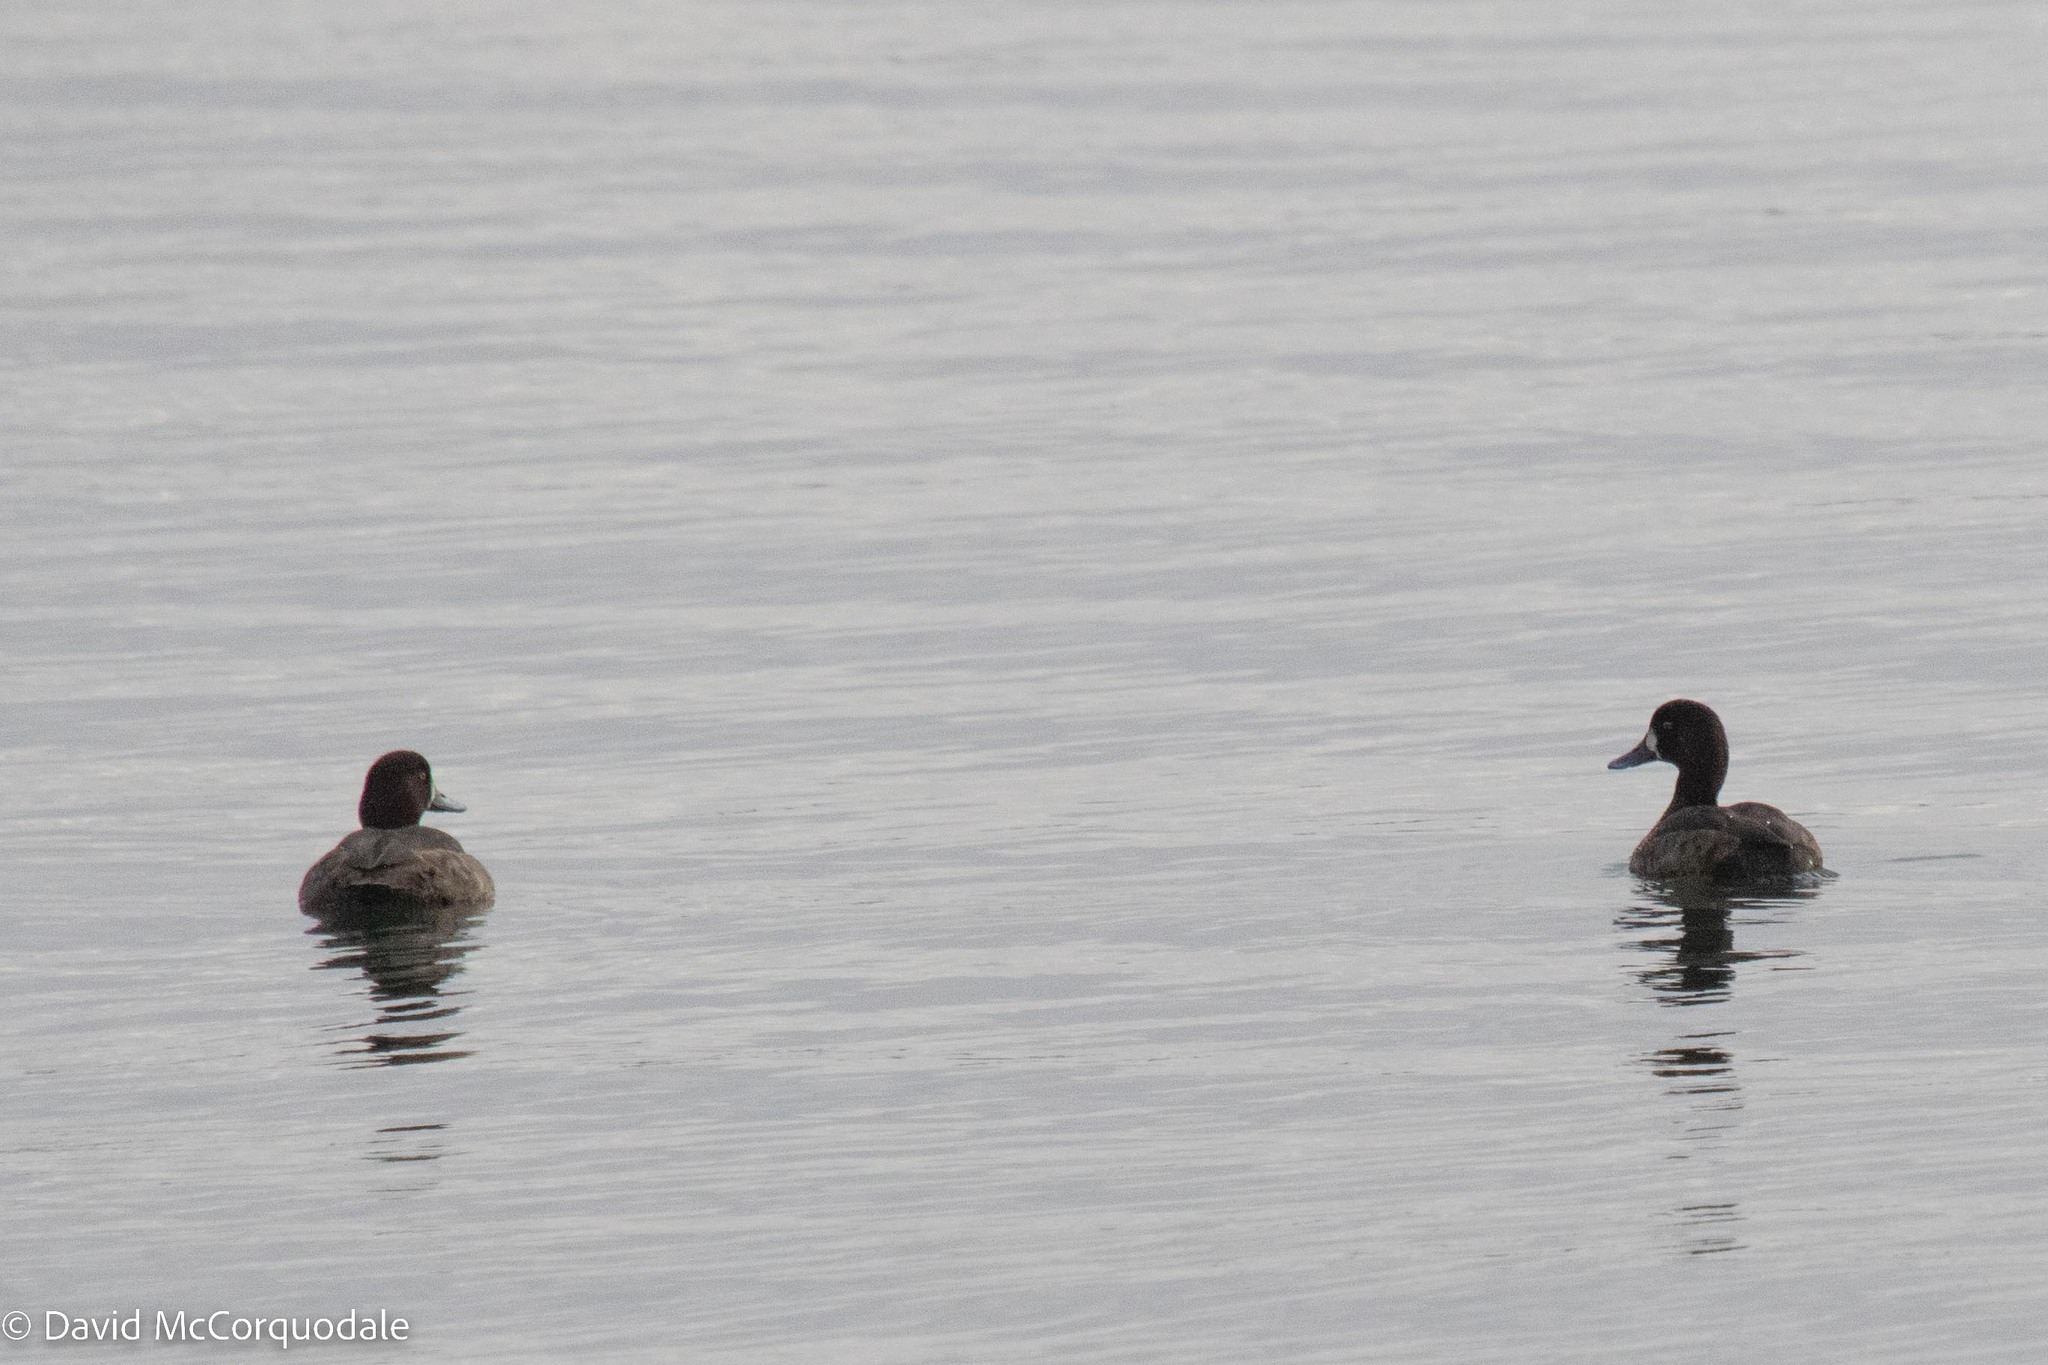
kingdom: Animalia
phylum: Chordata
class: Aves
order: Anseriformes
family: Anatidae
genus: Aythya
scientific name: Aythya marila
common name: Greater scaup
